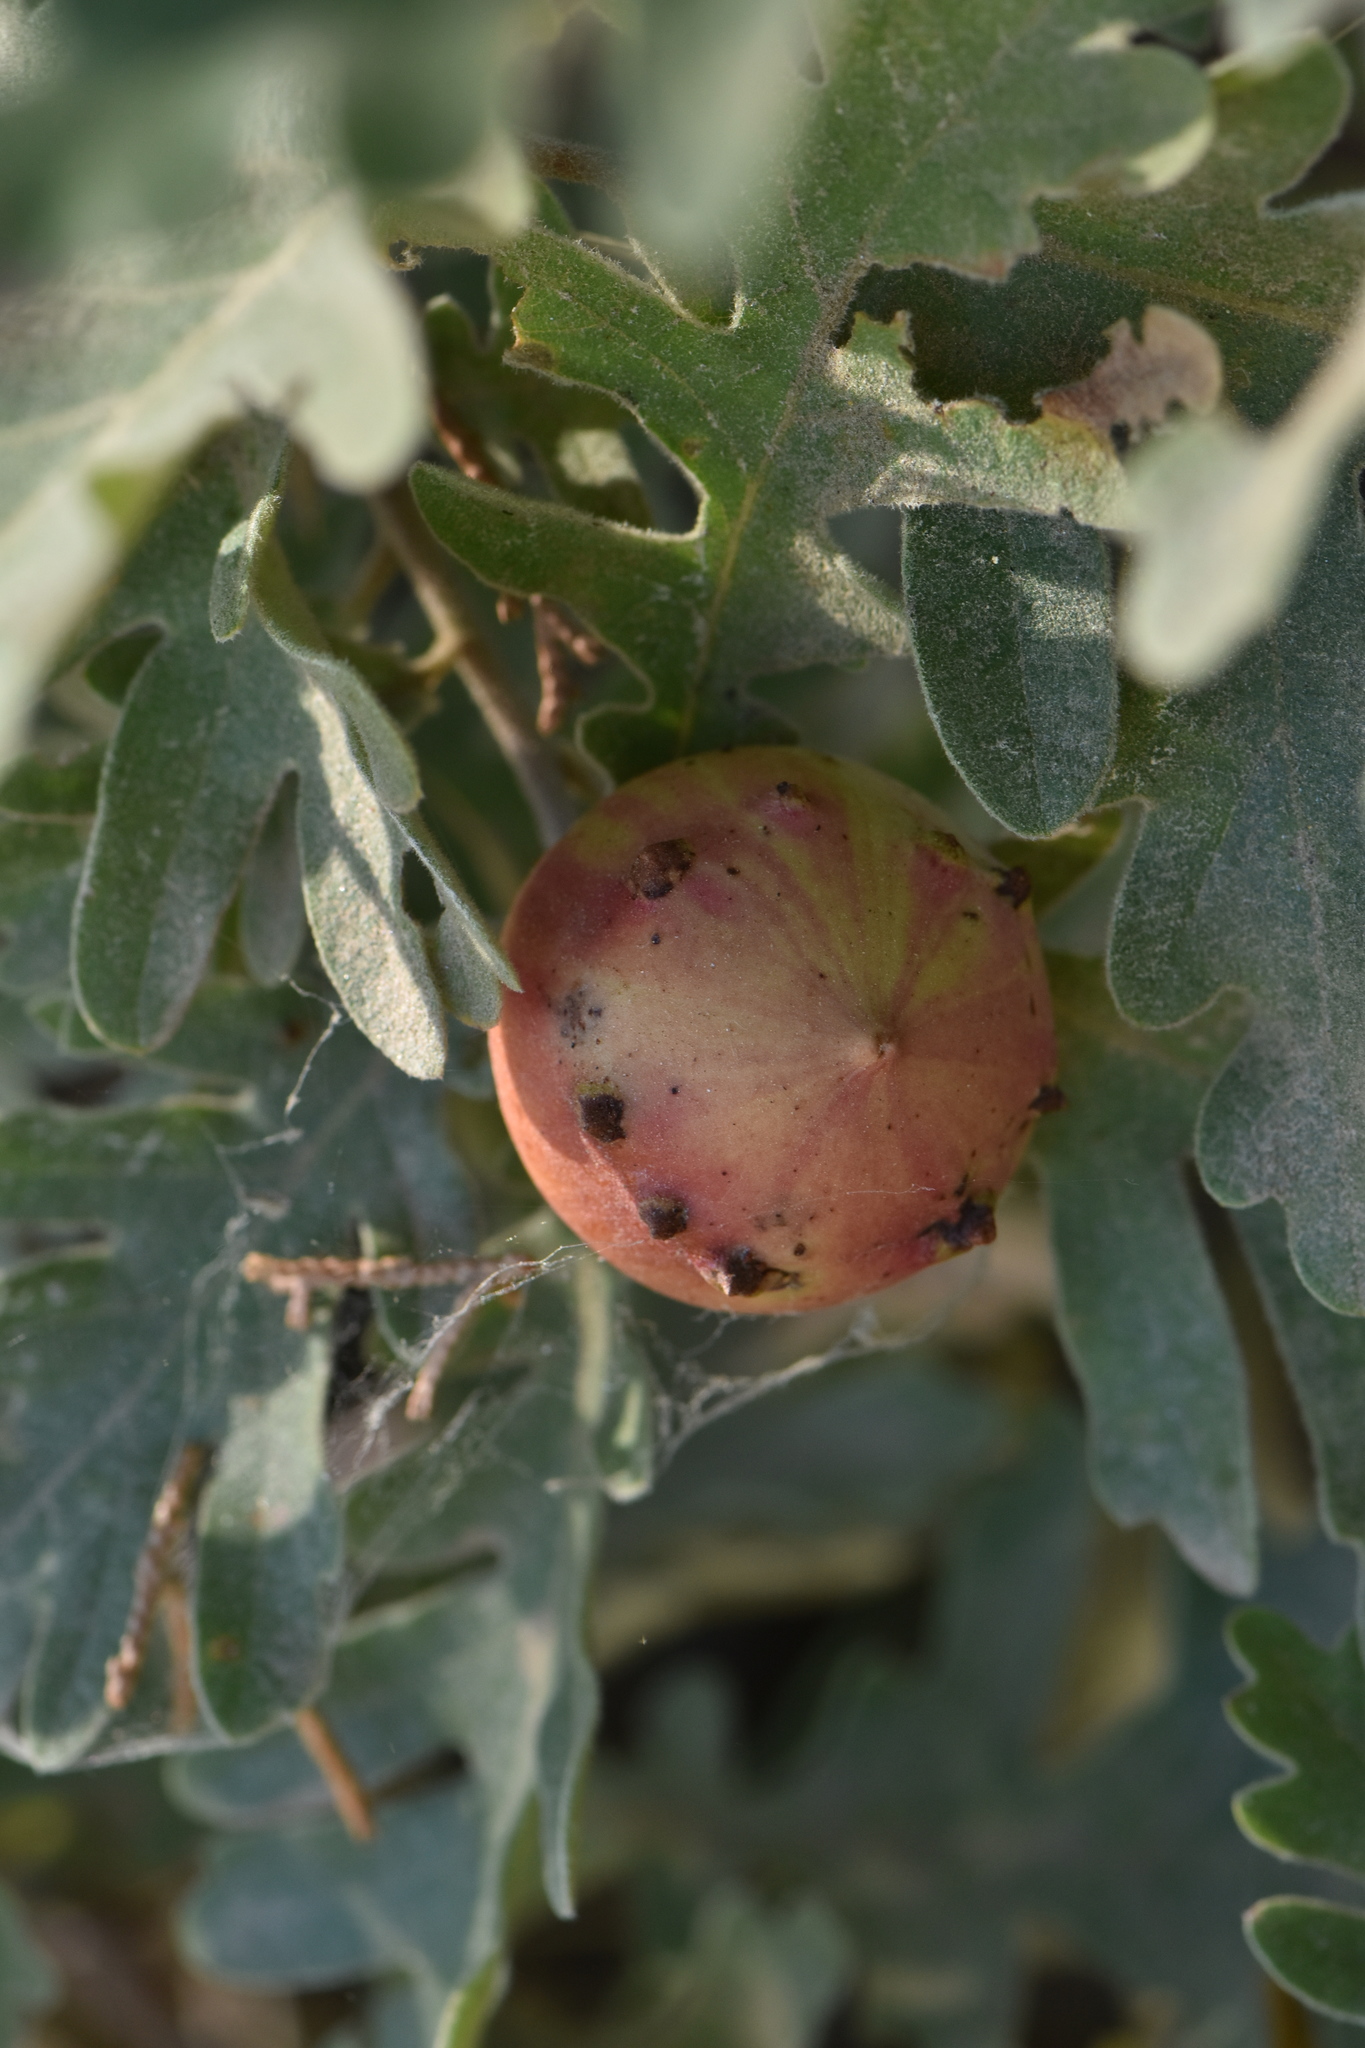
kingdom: Animalia
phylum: Arthropoda
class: Insecta
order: Hymenoptera
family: Cynipidae
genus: Andricus
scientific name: Andricus quercustozae
